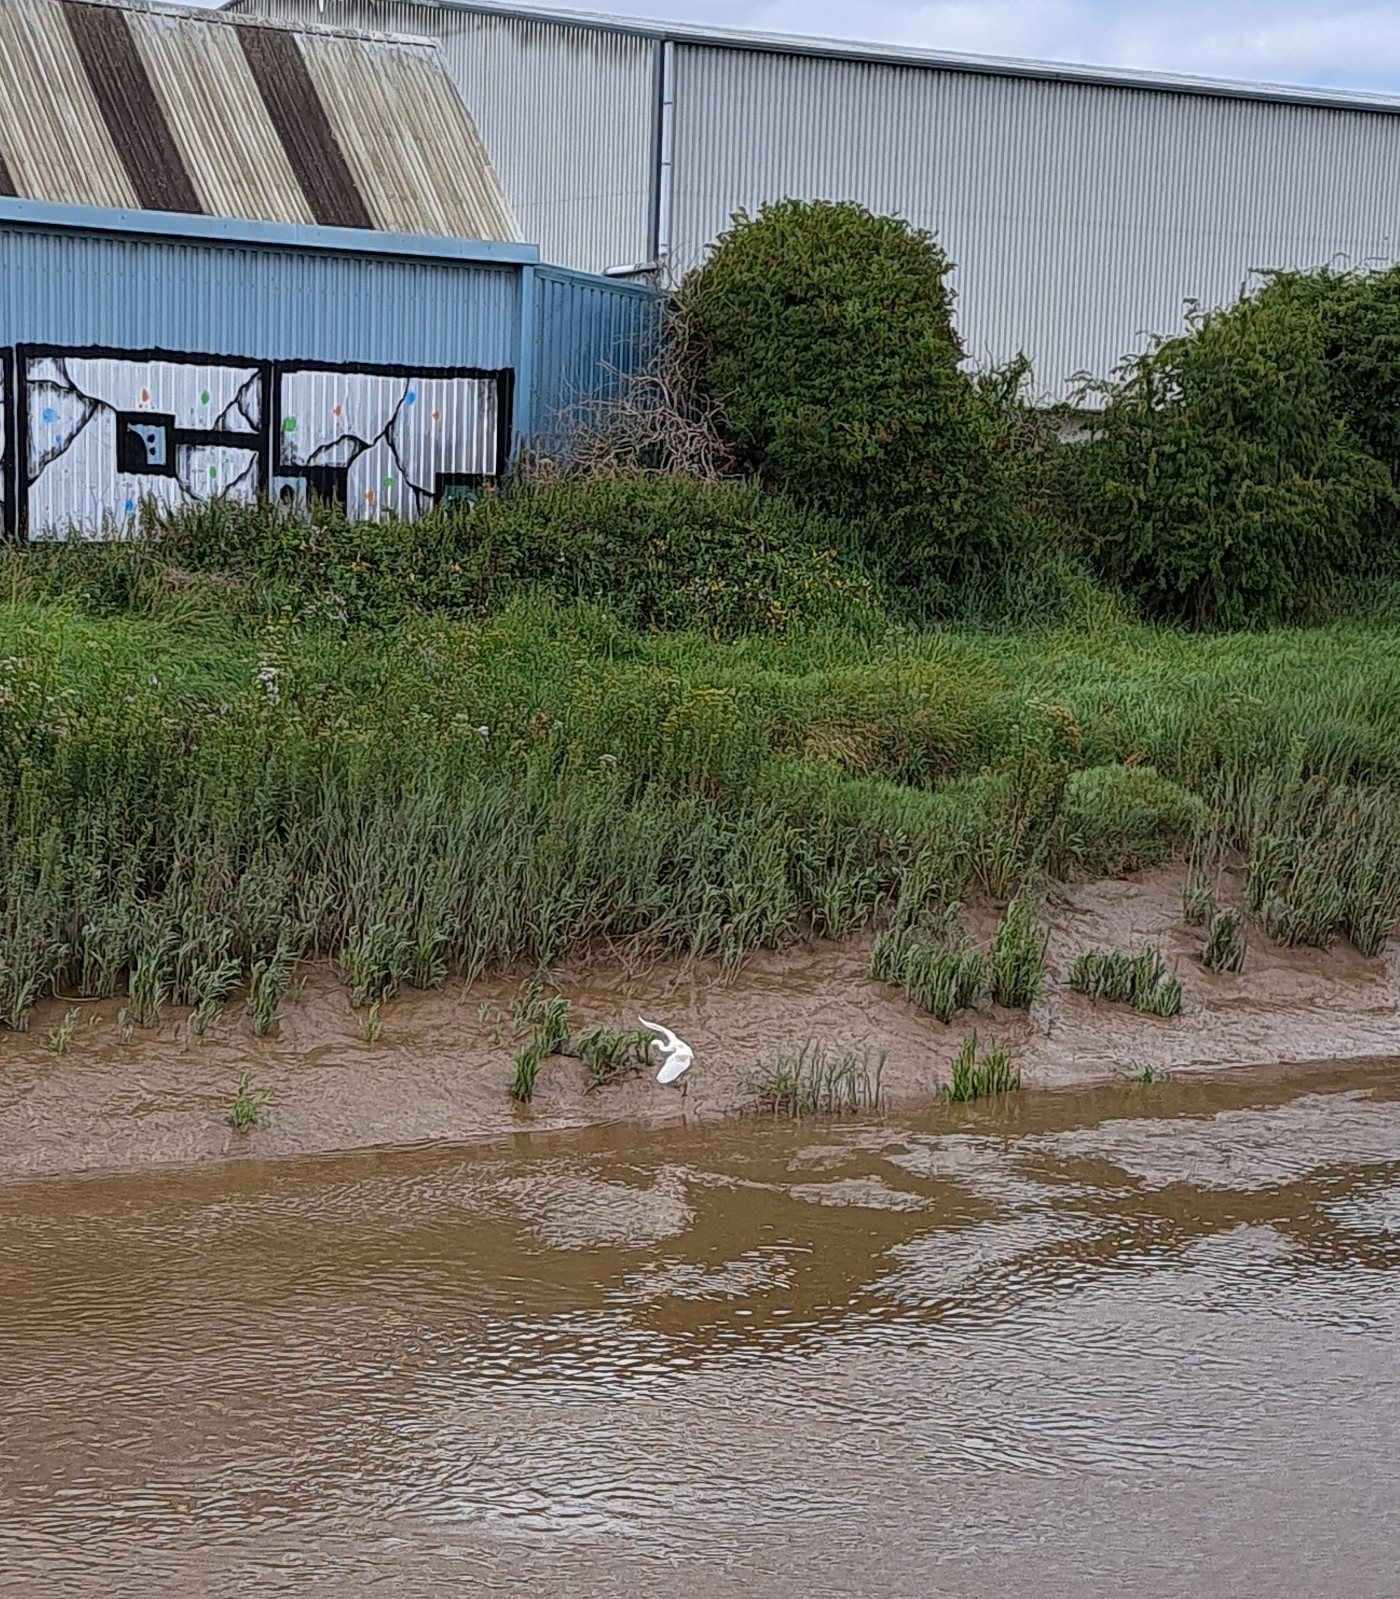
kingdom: Animalia
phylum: Chordata
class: Aves
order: Pelecaniformes
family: Ardeidae
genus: Egretta
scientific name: Egretta garzetta
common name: Little egret
